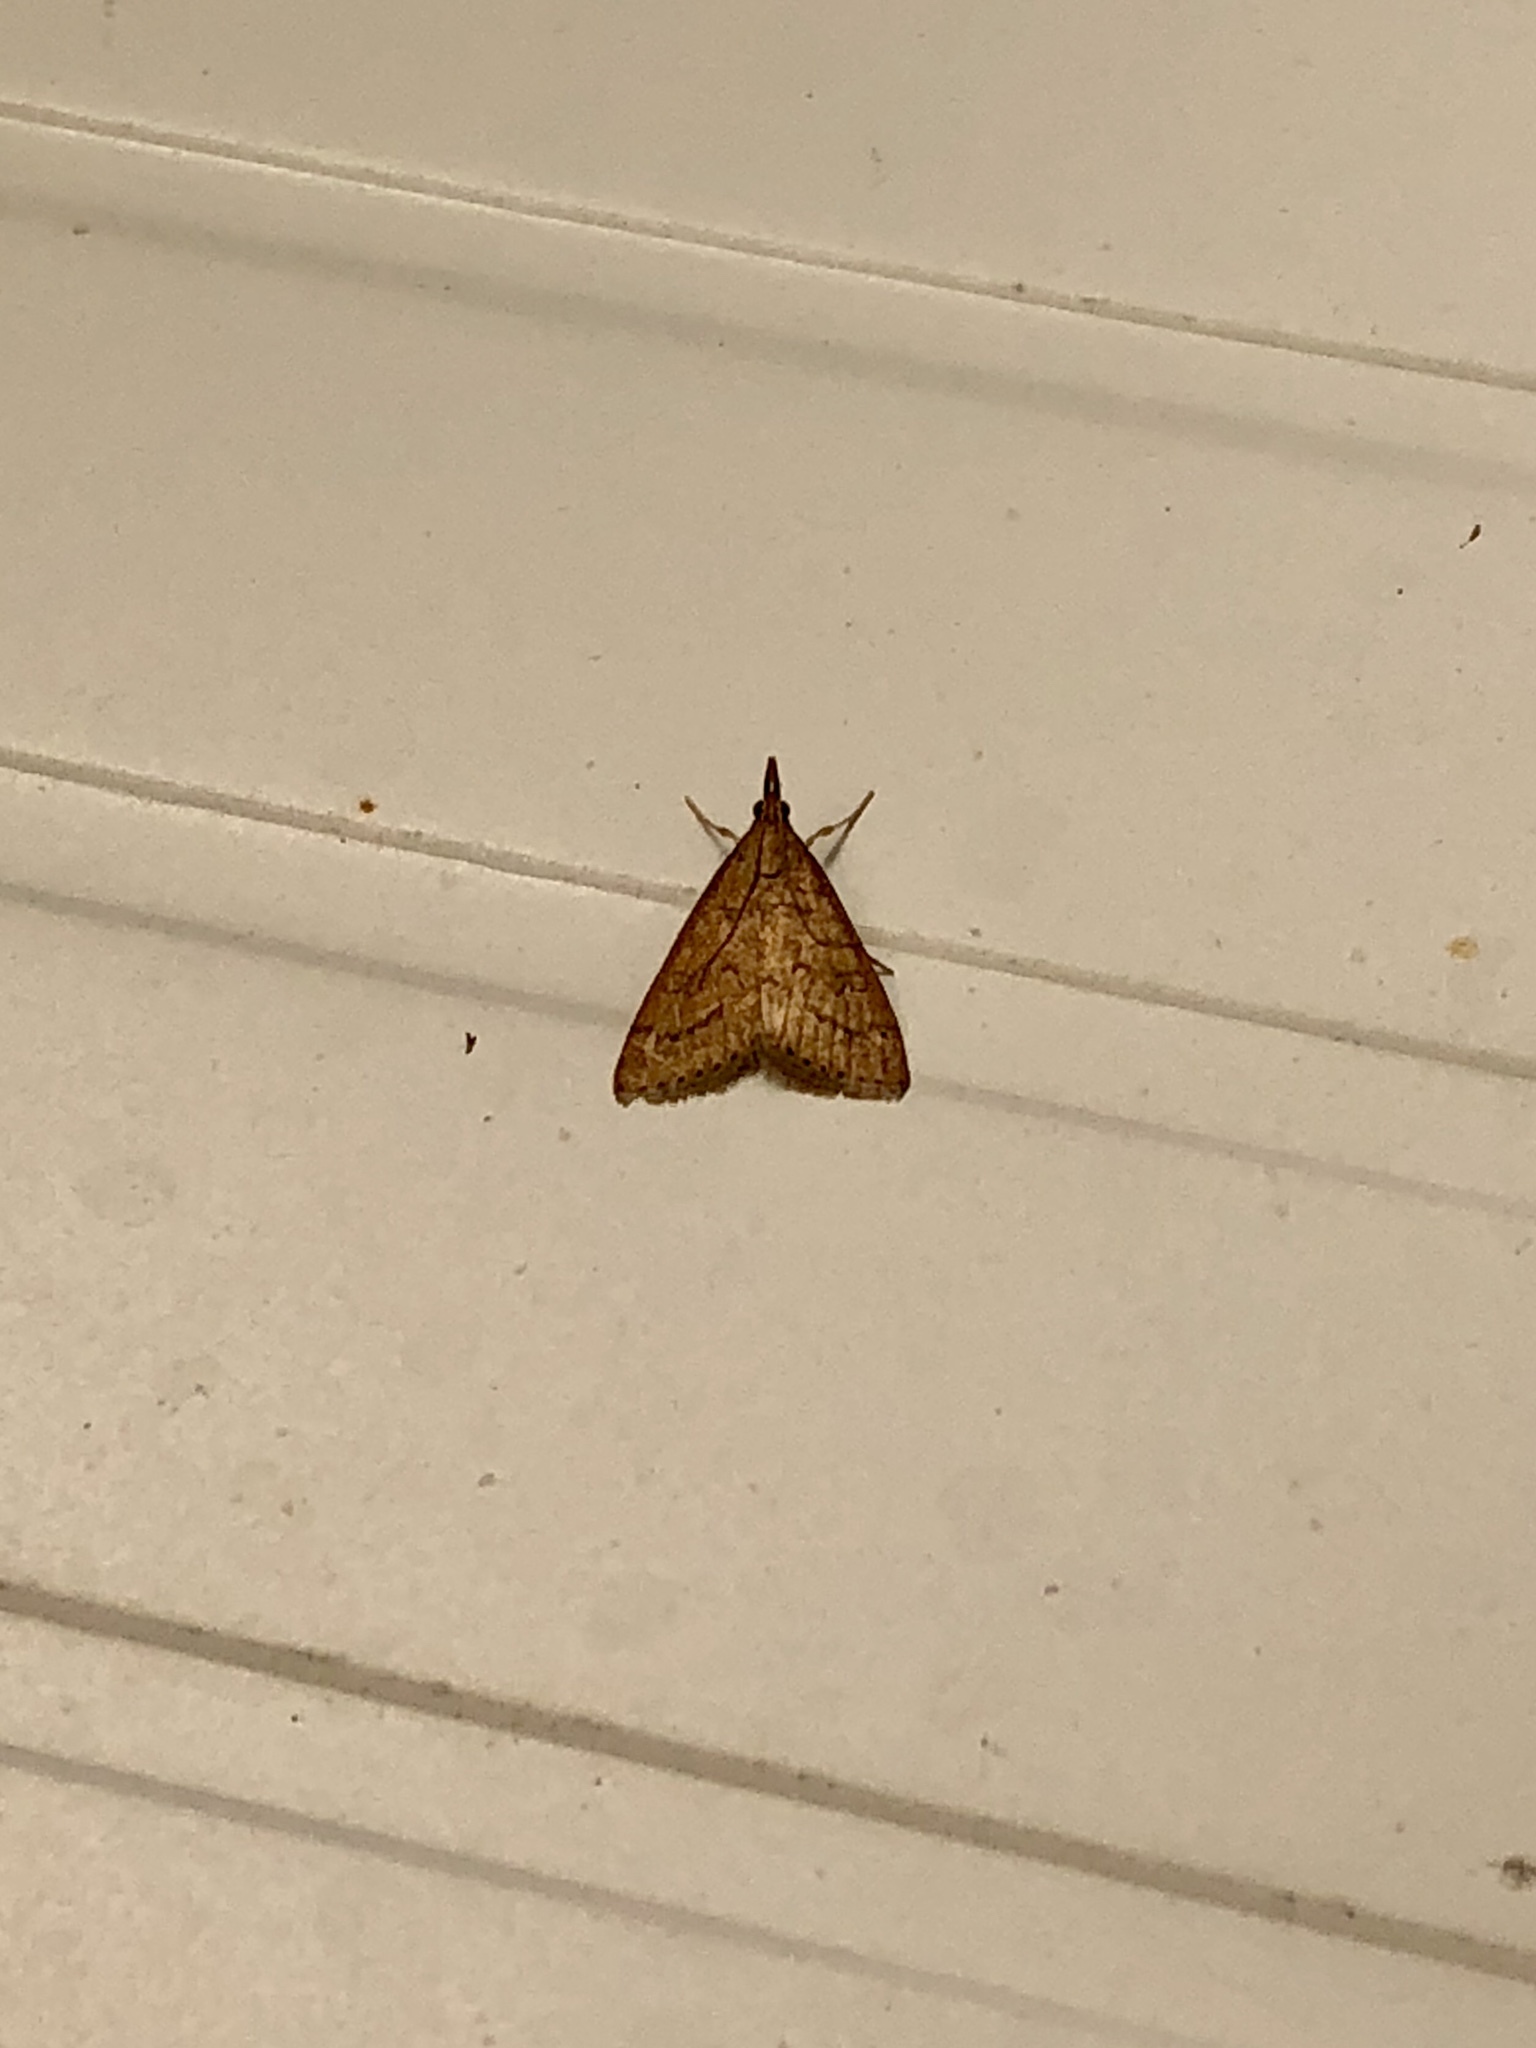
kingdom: Animalia
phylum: Arthropoda
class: Insecta
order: Lepidoptera
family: Crambidae
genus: Udea
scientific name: Udea rubigalis
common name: Celery leaftier moth
